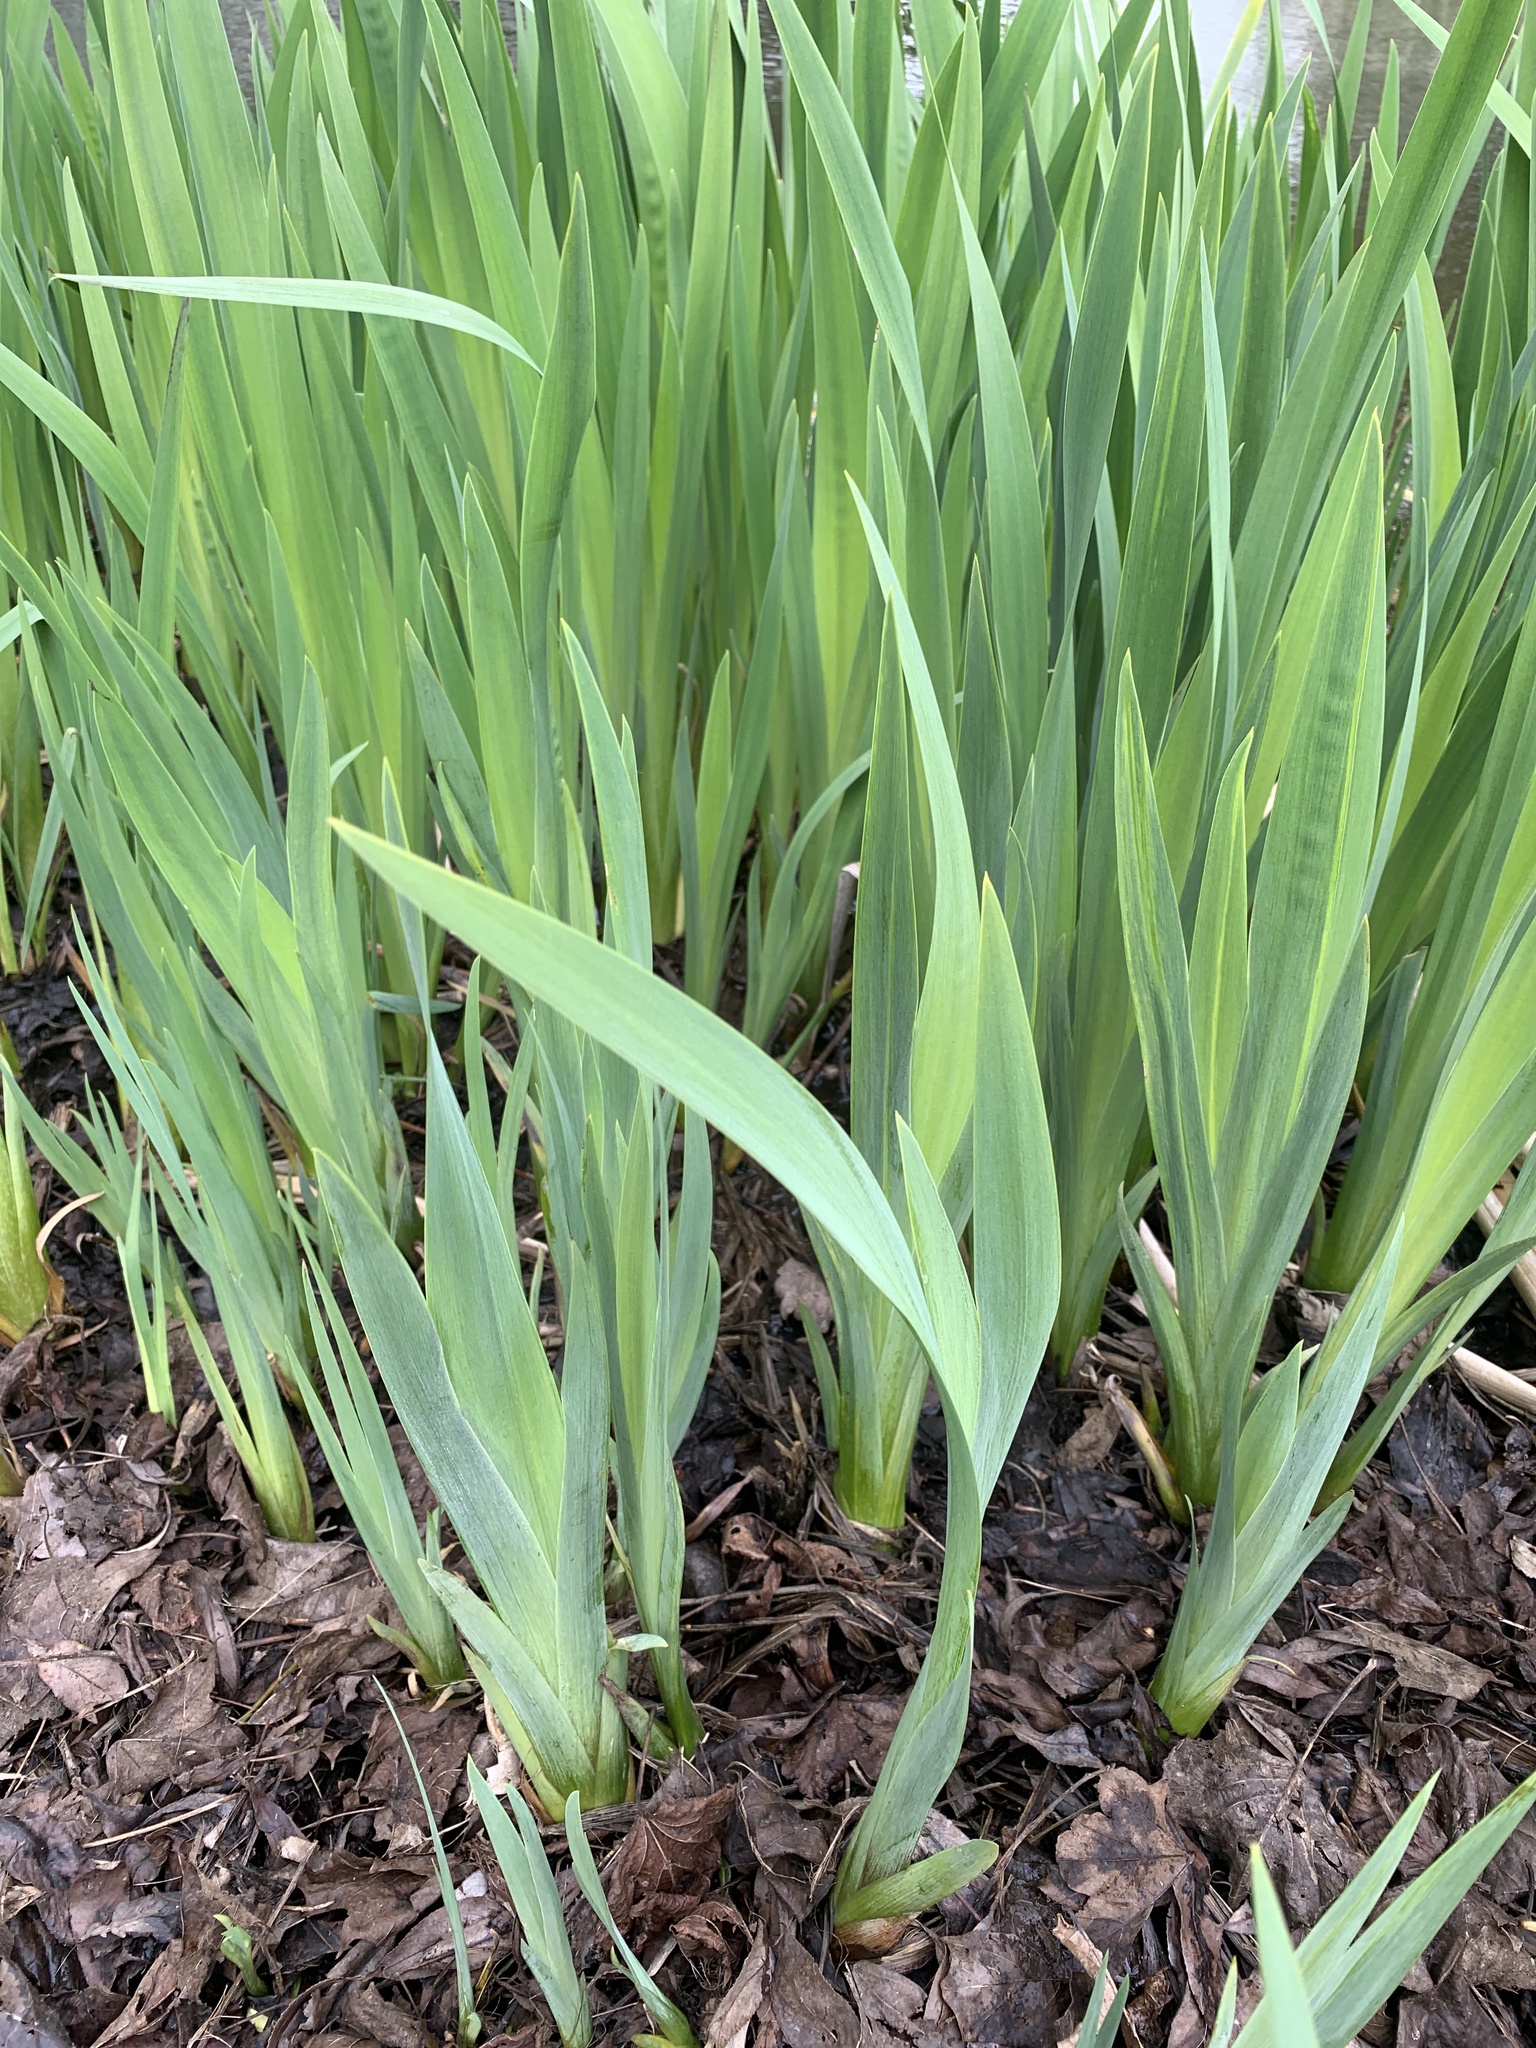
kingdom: Plantae
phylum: Tracheophyta
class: Liliopsida
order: Asparagales
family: Iridaceae
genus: Iris
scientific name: Iris pseudacorus
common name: Yellow flag
